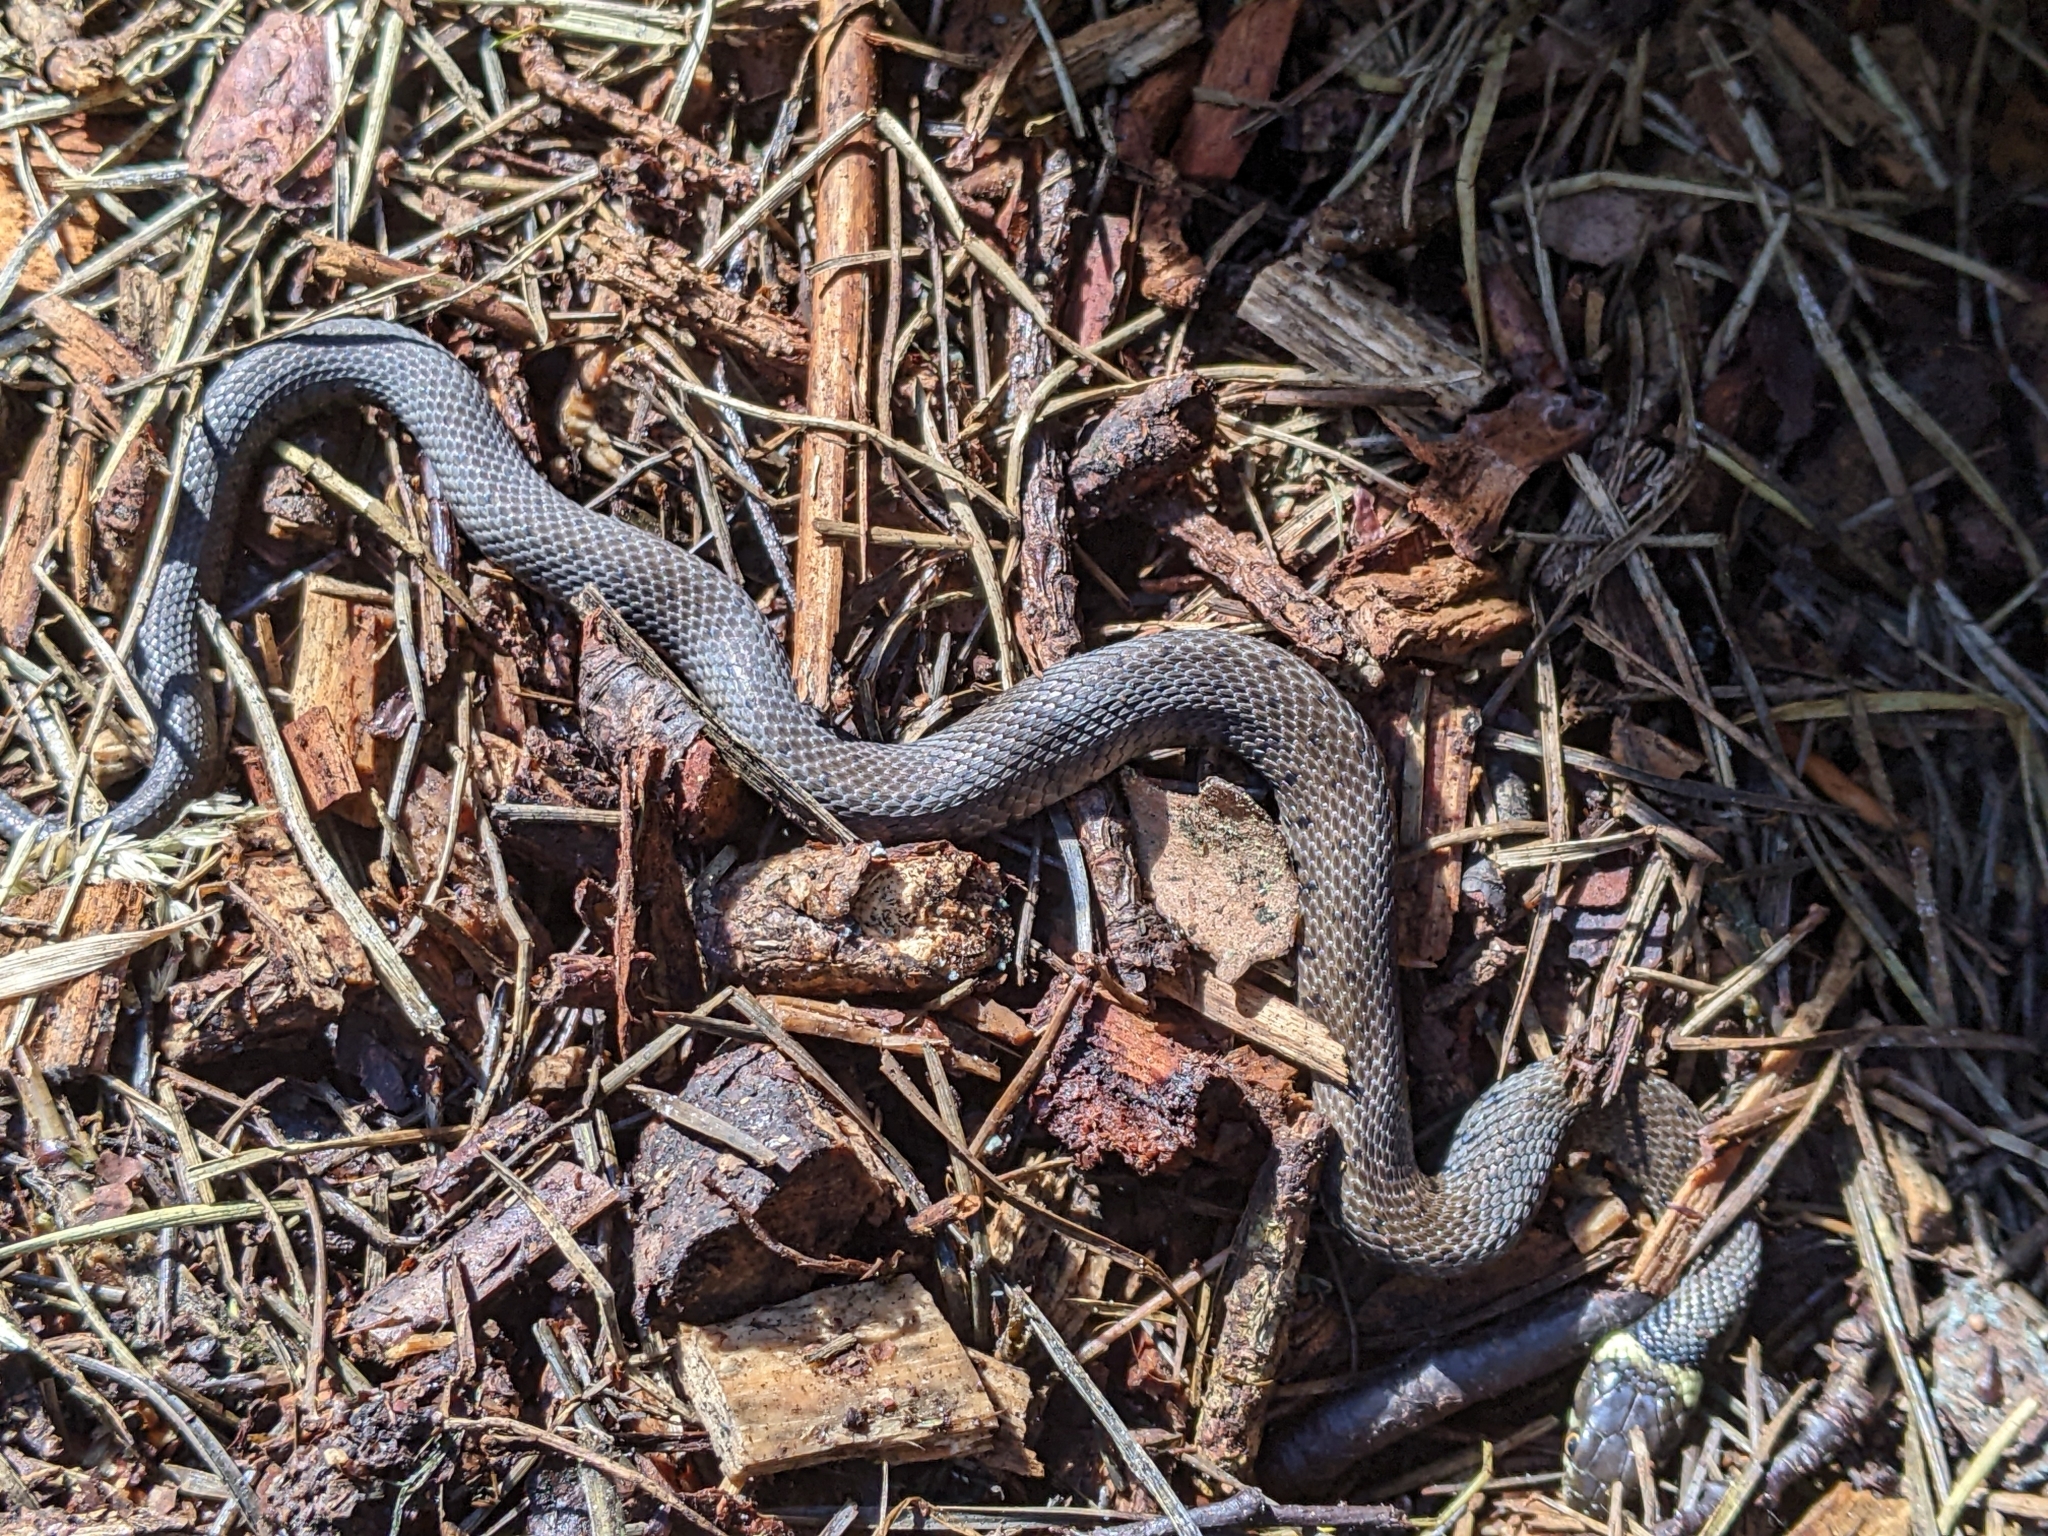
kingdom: Animalia
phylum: Chordata
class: Squamata
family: Colubridae
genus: Natrix
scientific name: Natrix helvetica
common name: Banded grass snake
